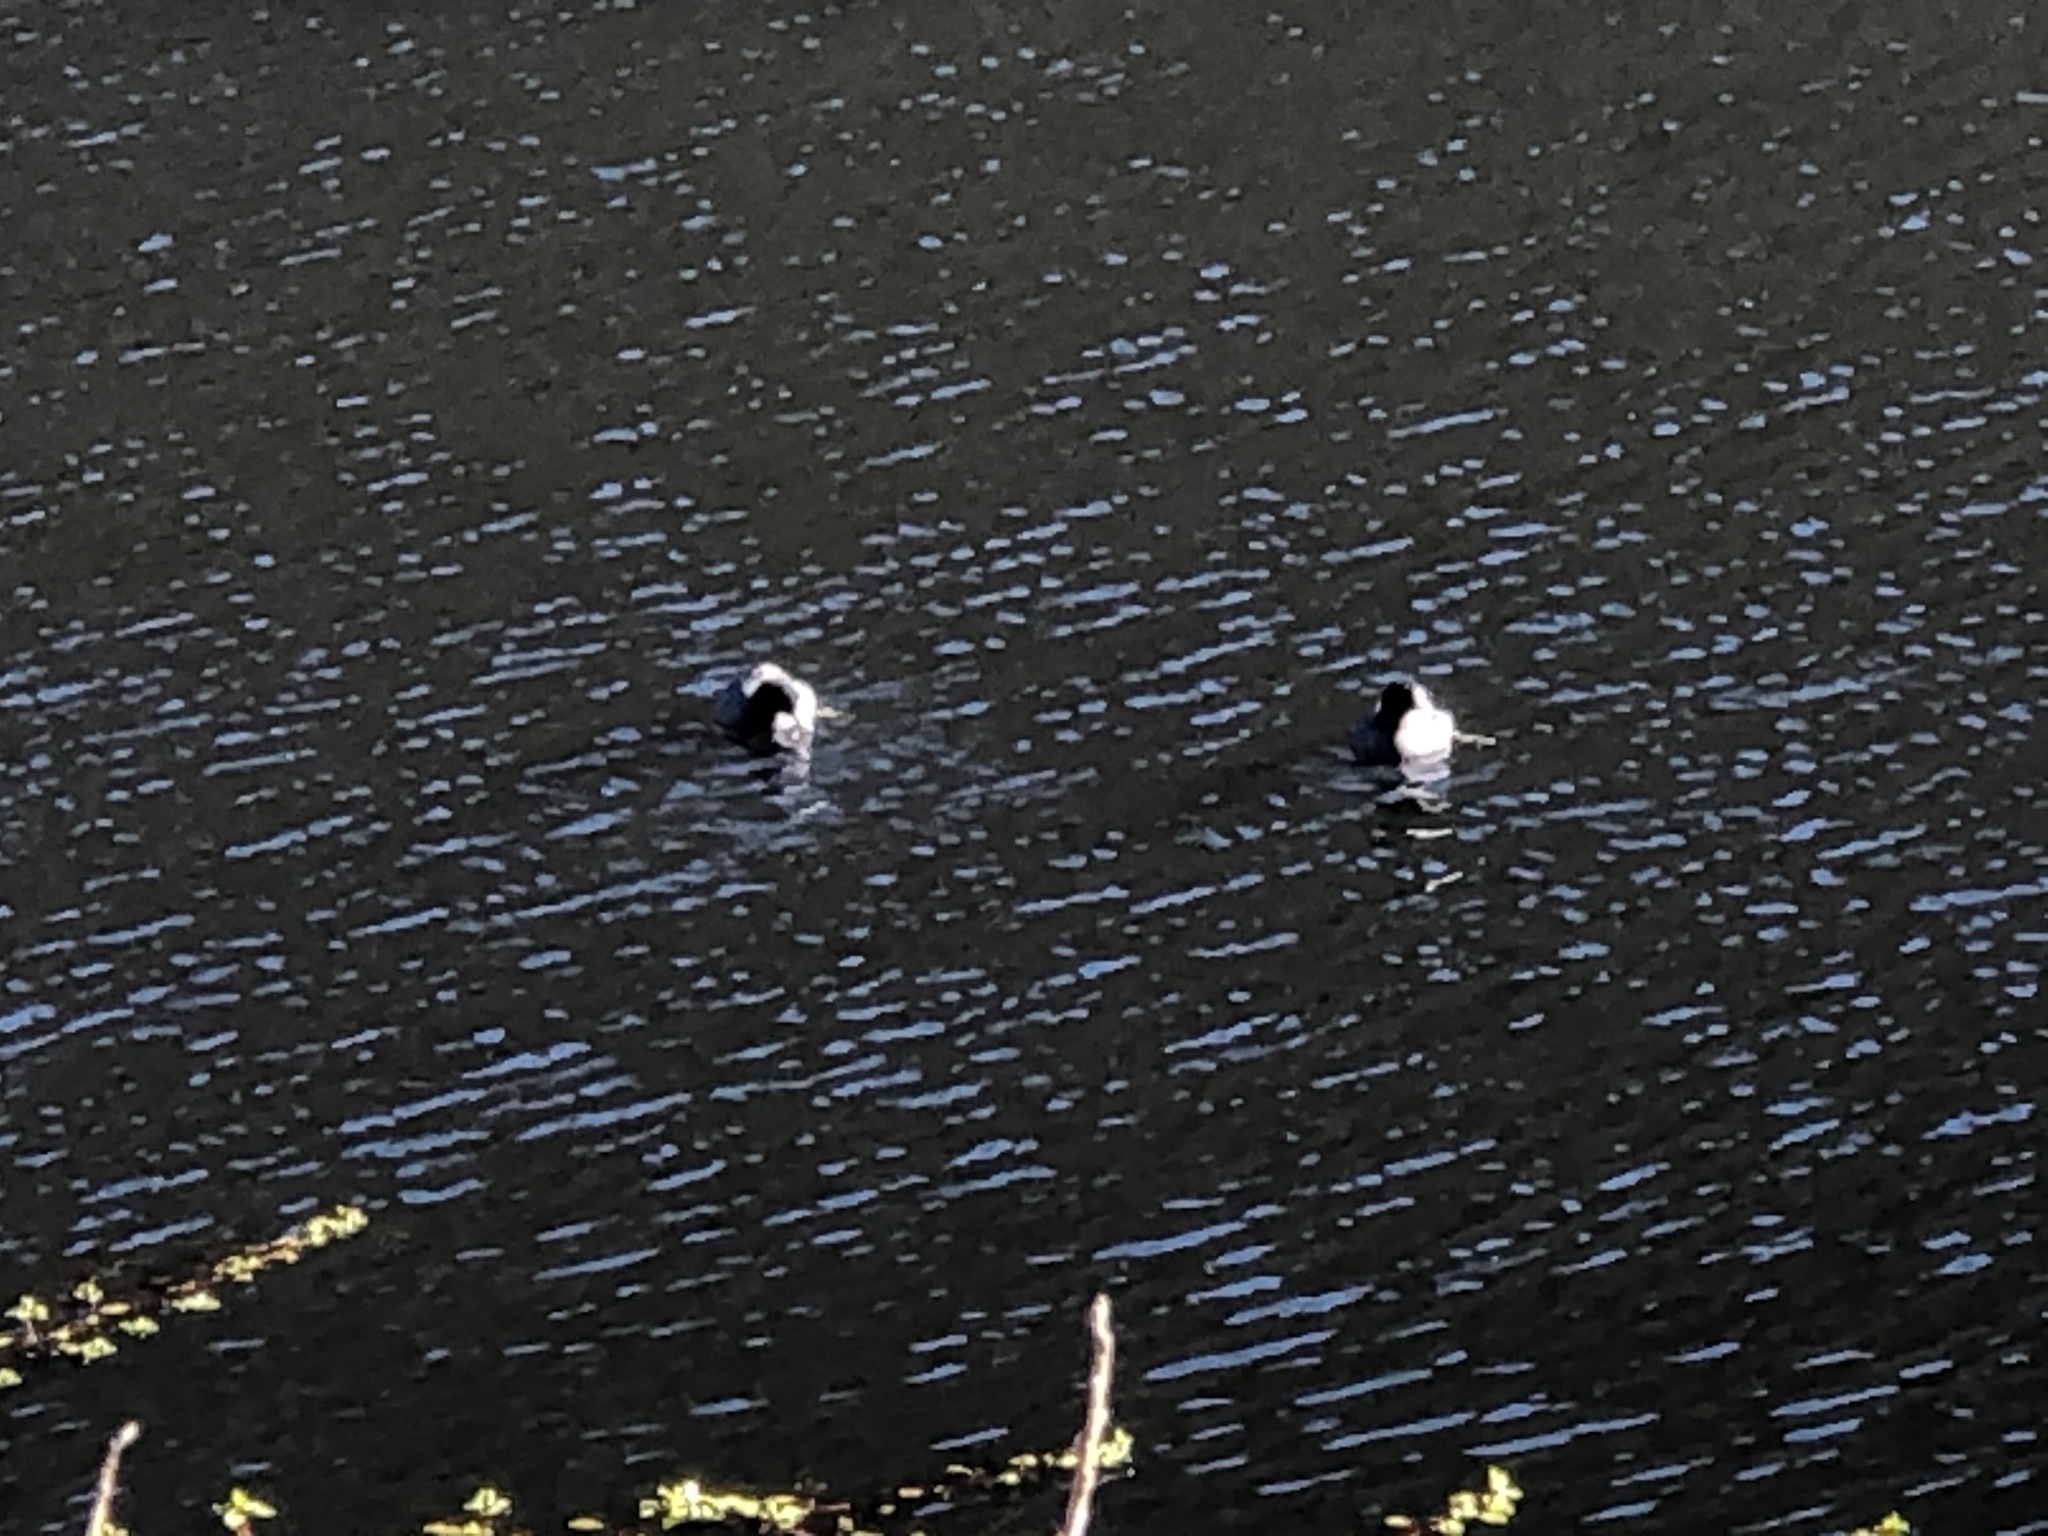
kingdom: Animalia
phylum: Chordata
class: Aves
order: Gruiformes
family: Rallidae
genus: Fulica
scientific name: Fulica americana
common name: American coot
